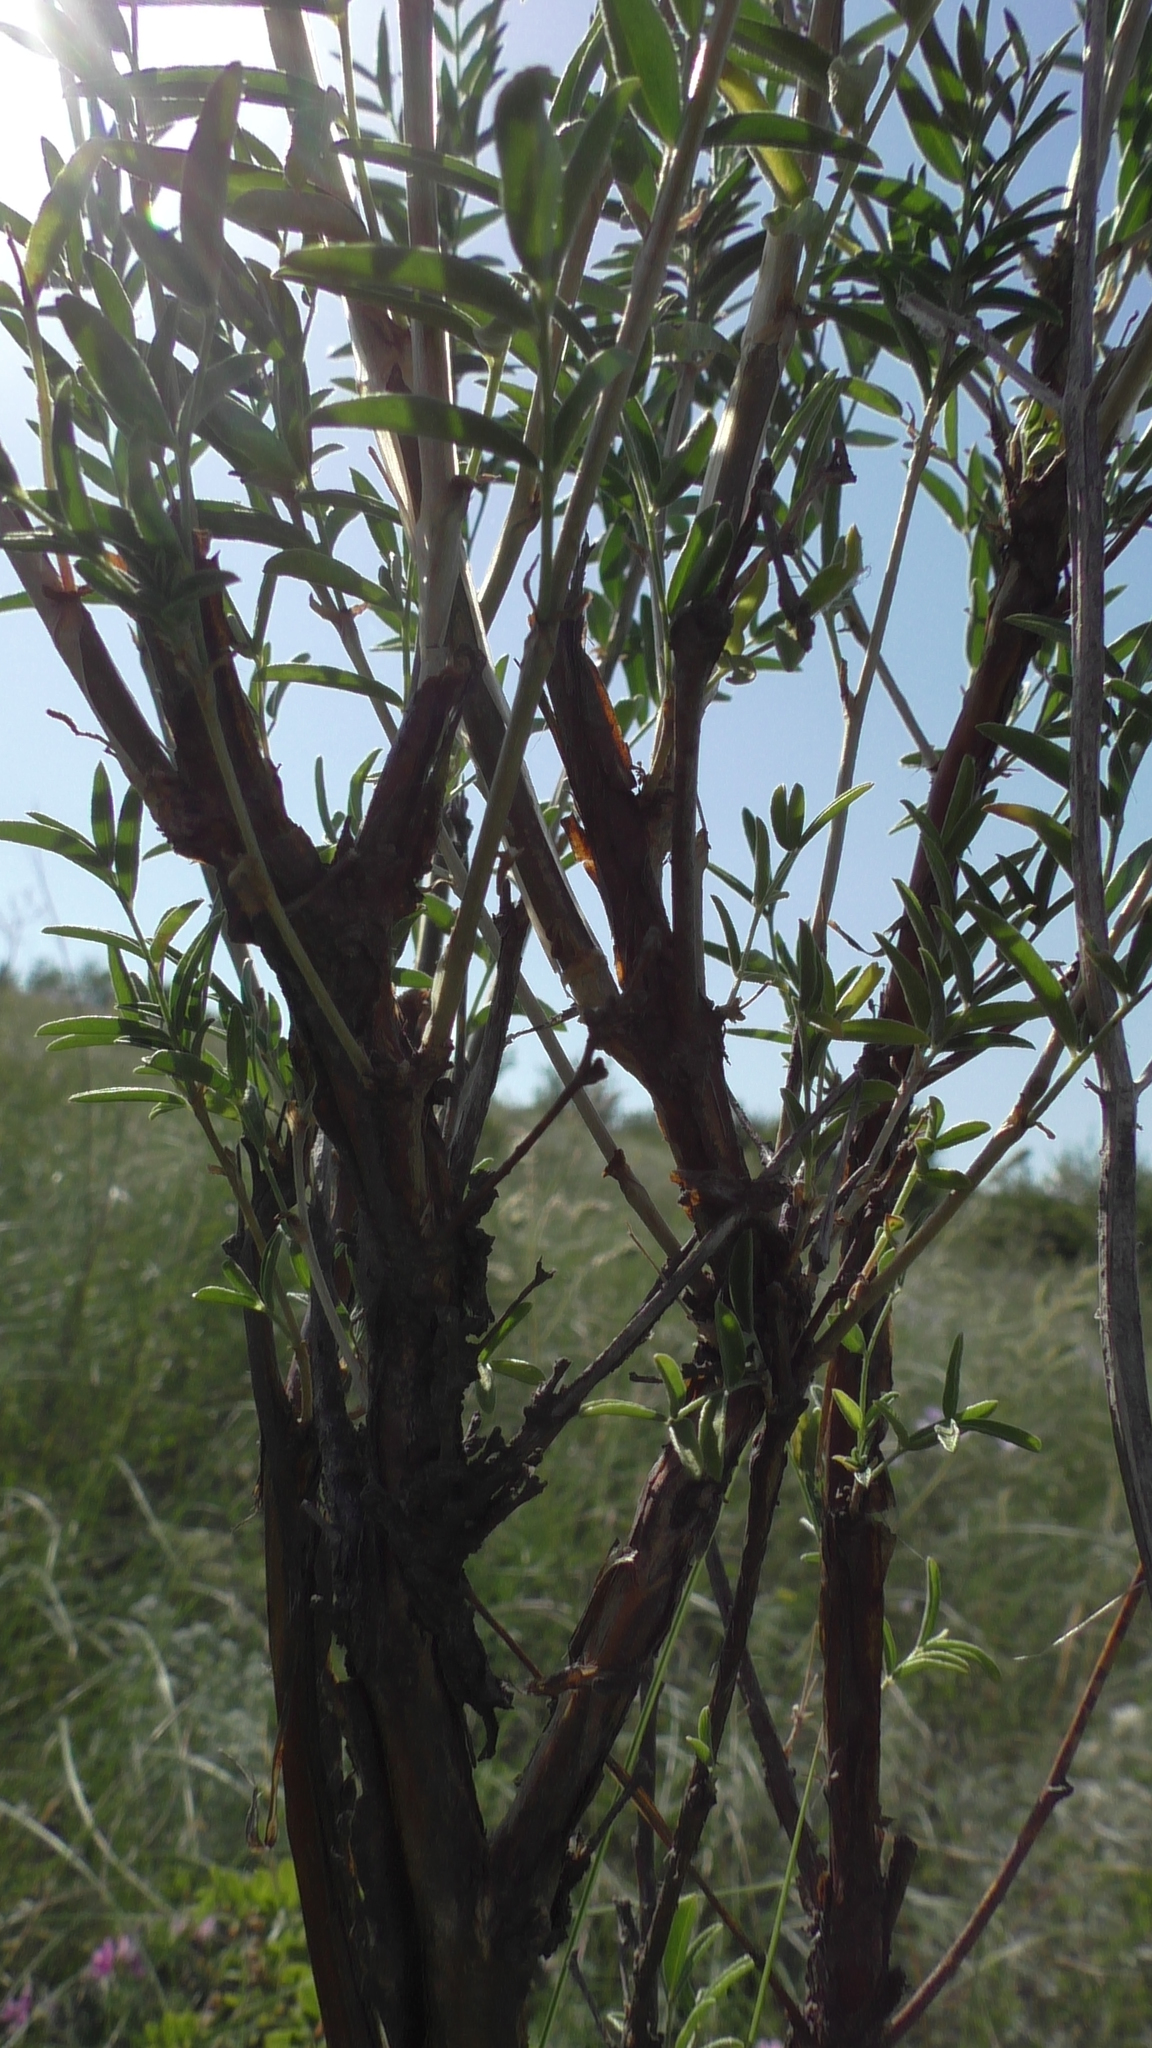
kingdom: Plantae
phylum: Tracheophyta
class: Magnoliopsida
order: Fabales
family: Fabaceae
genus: Astragalus
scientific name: Astragalus cornutus
